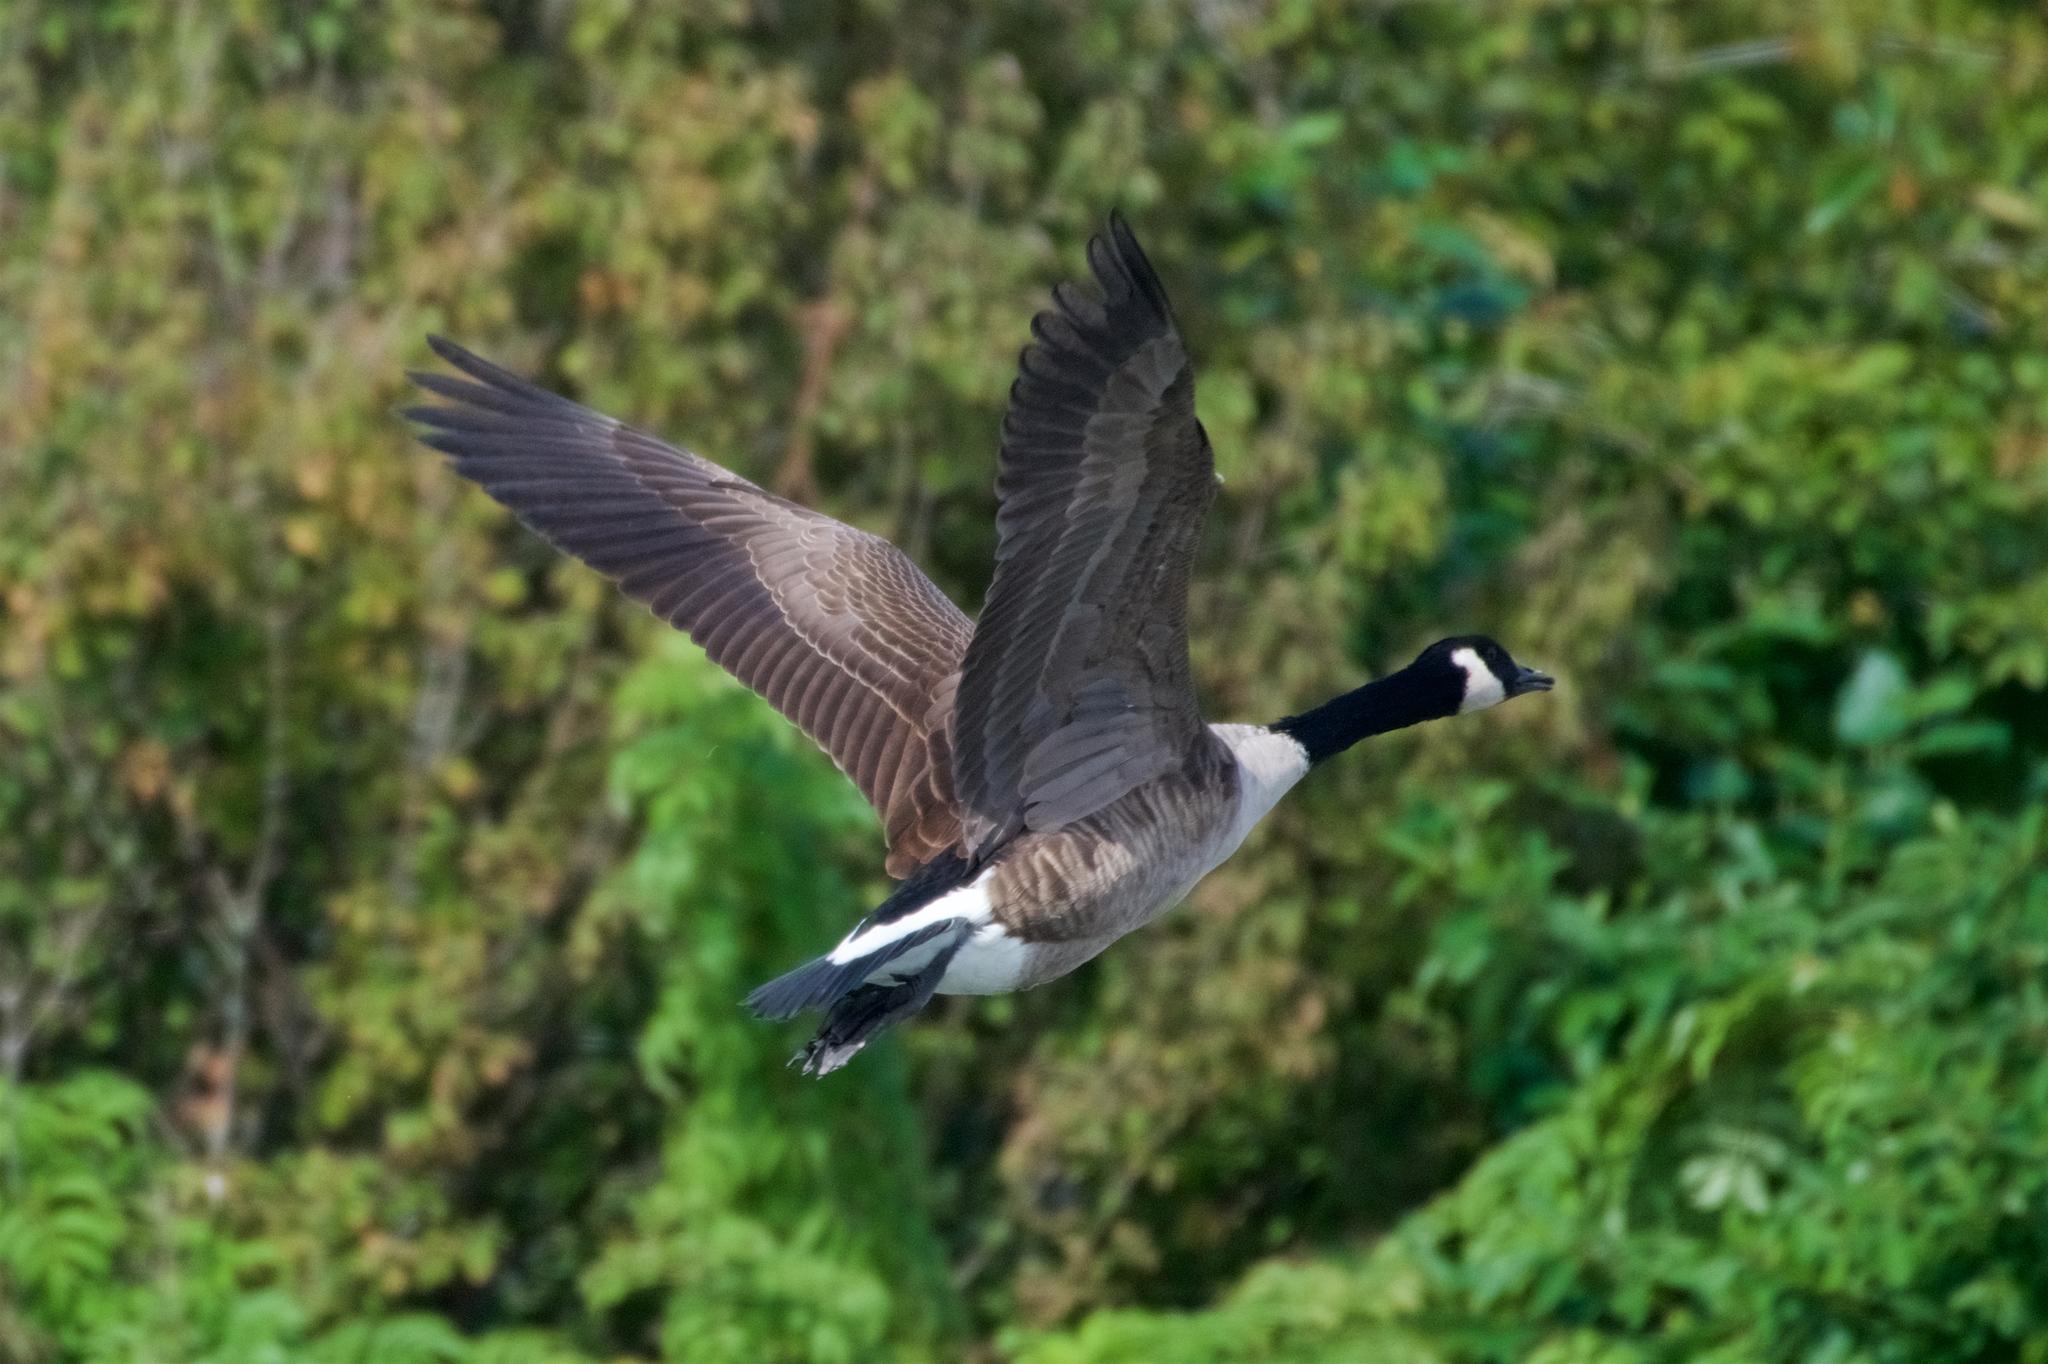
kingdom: Animalia
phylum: Chordata
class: Aves
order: Anseriformes
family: Anatidae
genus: Branta
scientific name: Branta canadensis
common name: Canada goose
